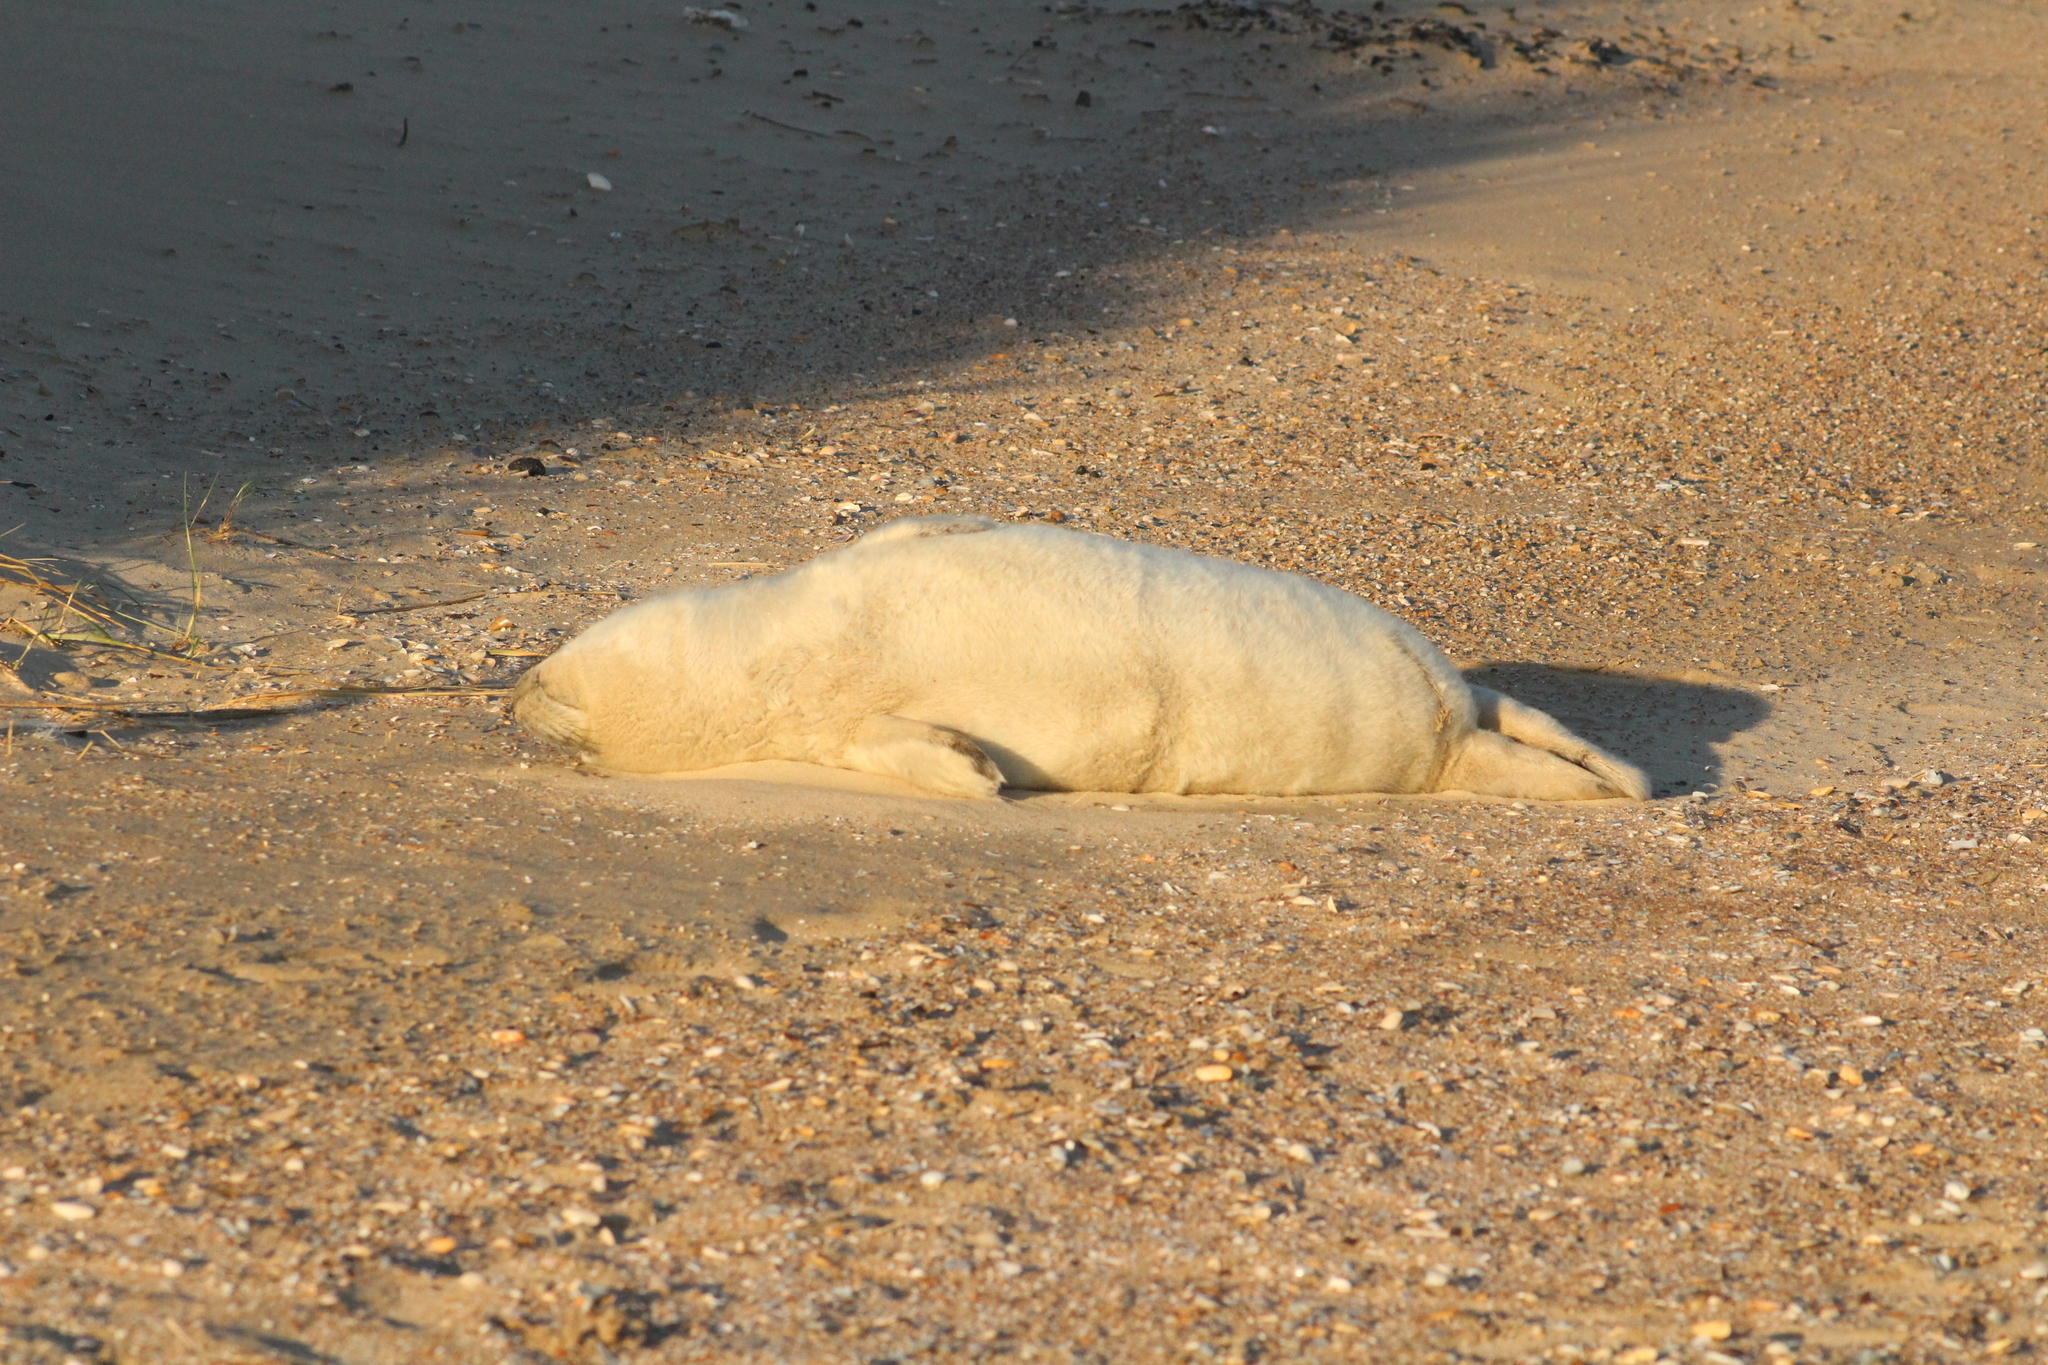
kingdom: Animalia
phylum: Chordata
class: Mammalia
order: Carnivora
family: Phocidae
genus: Halichoerus
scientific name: Halichoerus grypus
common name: Grey seal
